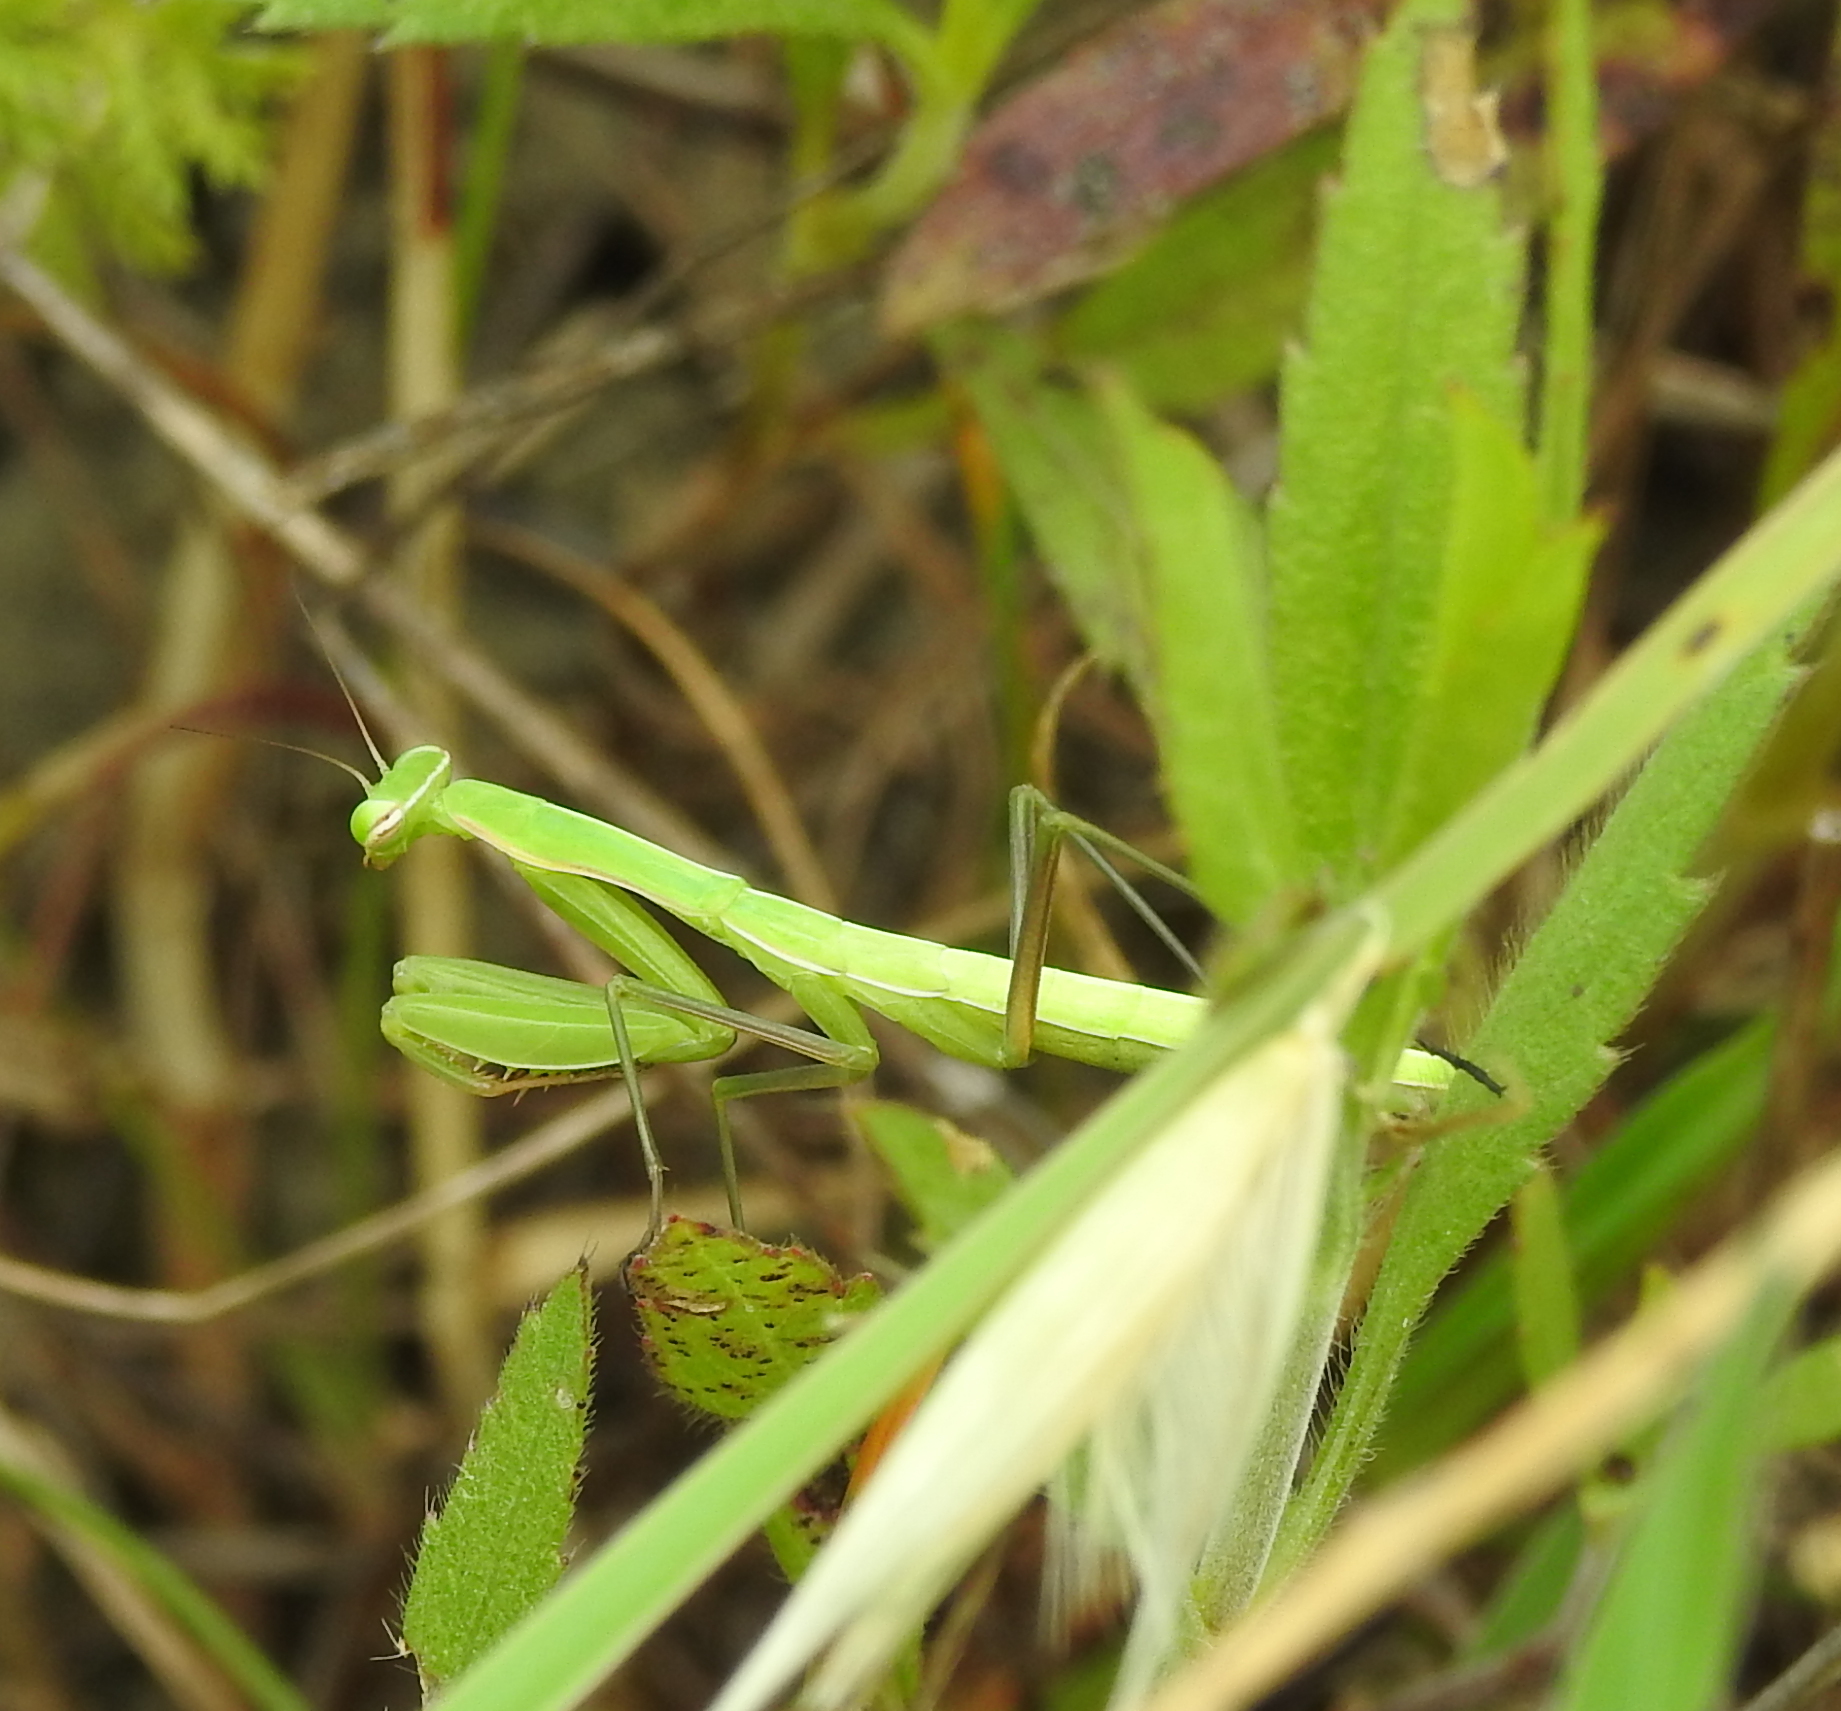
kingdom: Animalia
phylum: Arthropoda
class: Insecta
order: Mantodea
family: Mantidae
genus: Mantis
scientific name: Mantis religiosa
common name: Praying mantis
